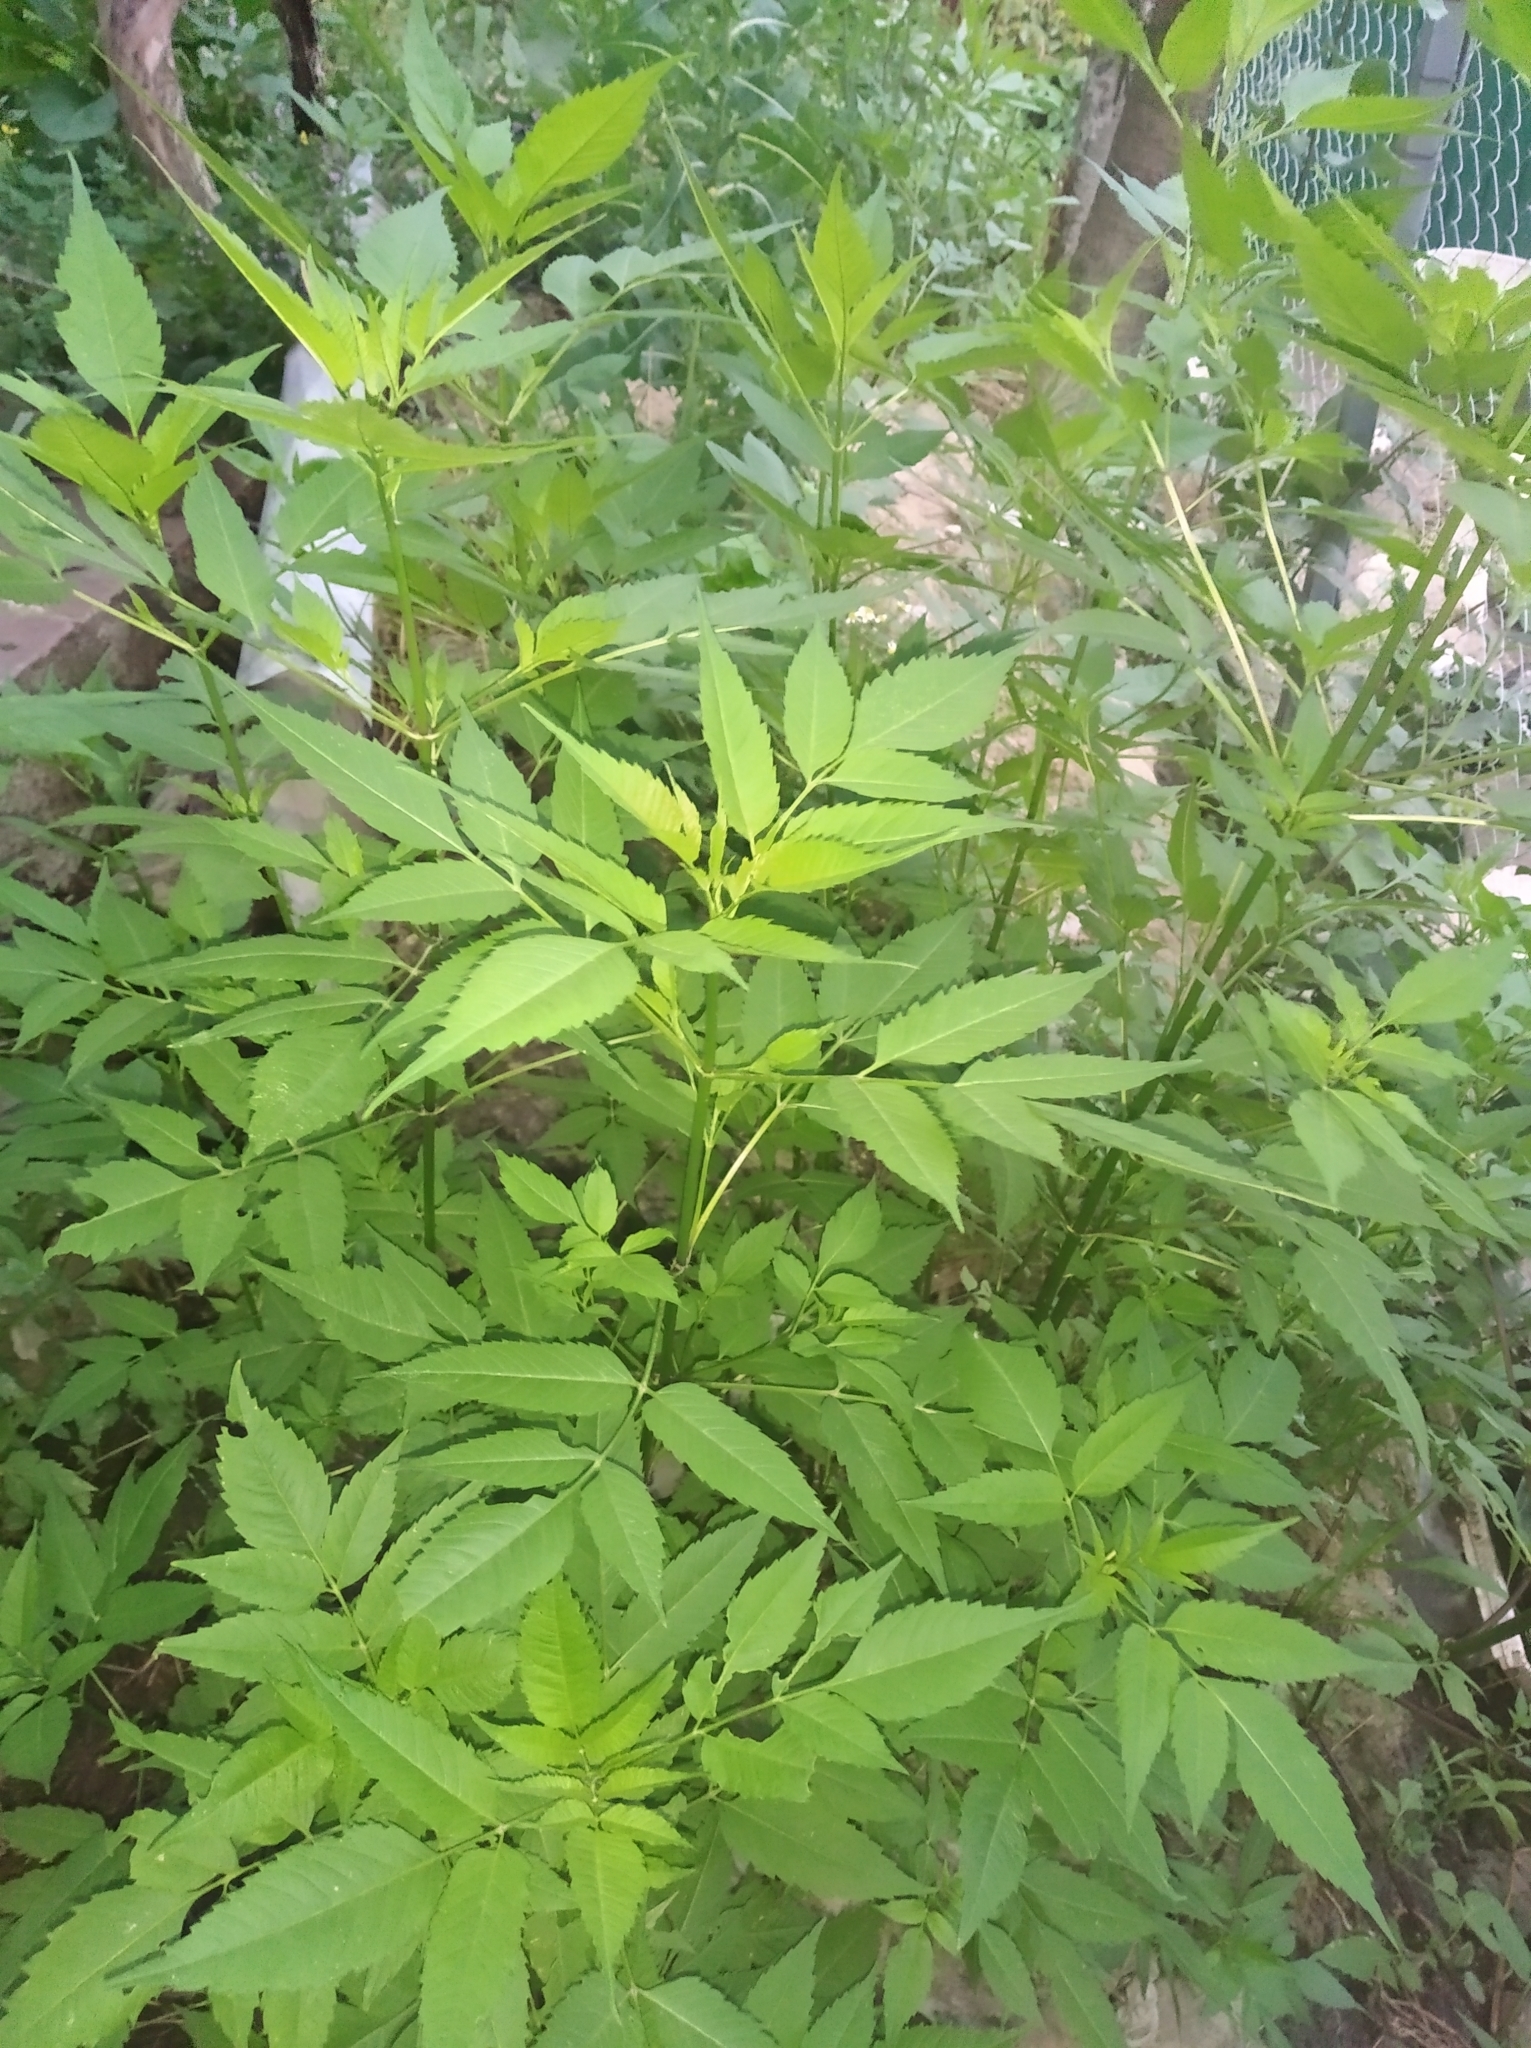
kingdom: Plantae
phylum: Tracheophyta
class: Magnoliopsida
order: Asterales
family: Asteraceae
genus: Bidens
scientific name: Bidens frondosa
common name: Beggarticks
